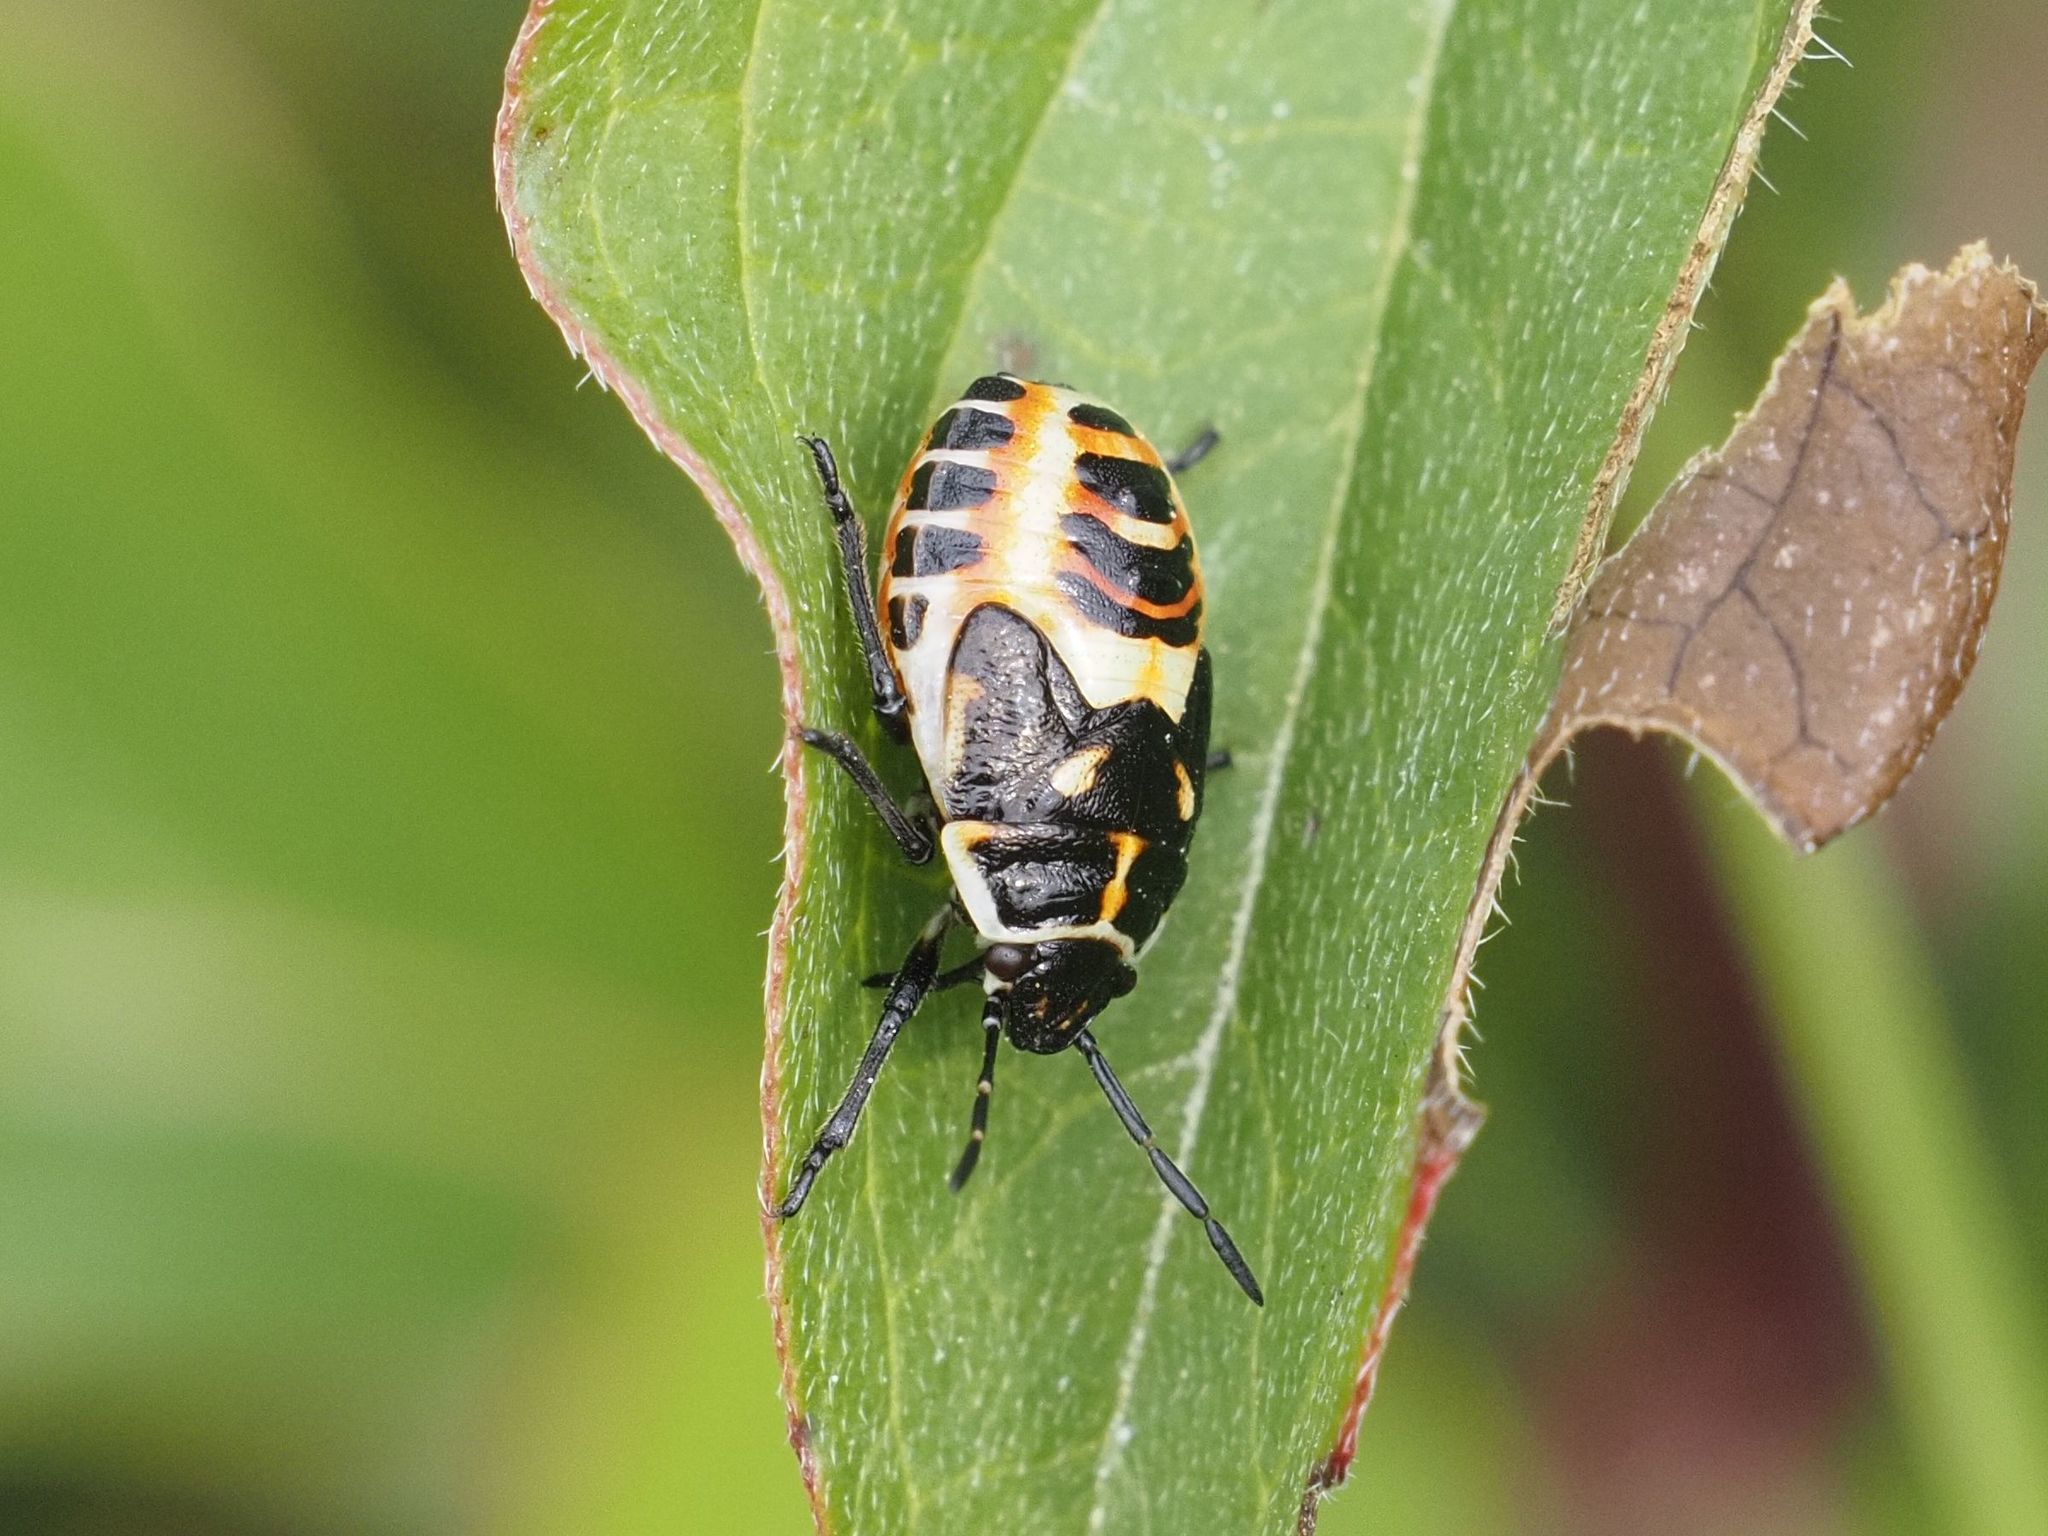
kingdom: Animalia
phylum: Arthropoda
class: Insecta
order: Hemiptera
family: Pentatomidae
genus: Eurydema
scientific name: Eurydema ornata
